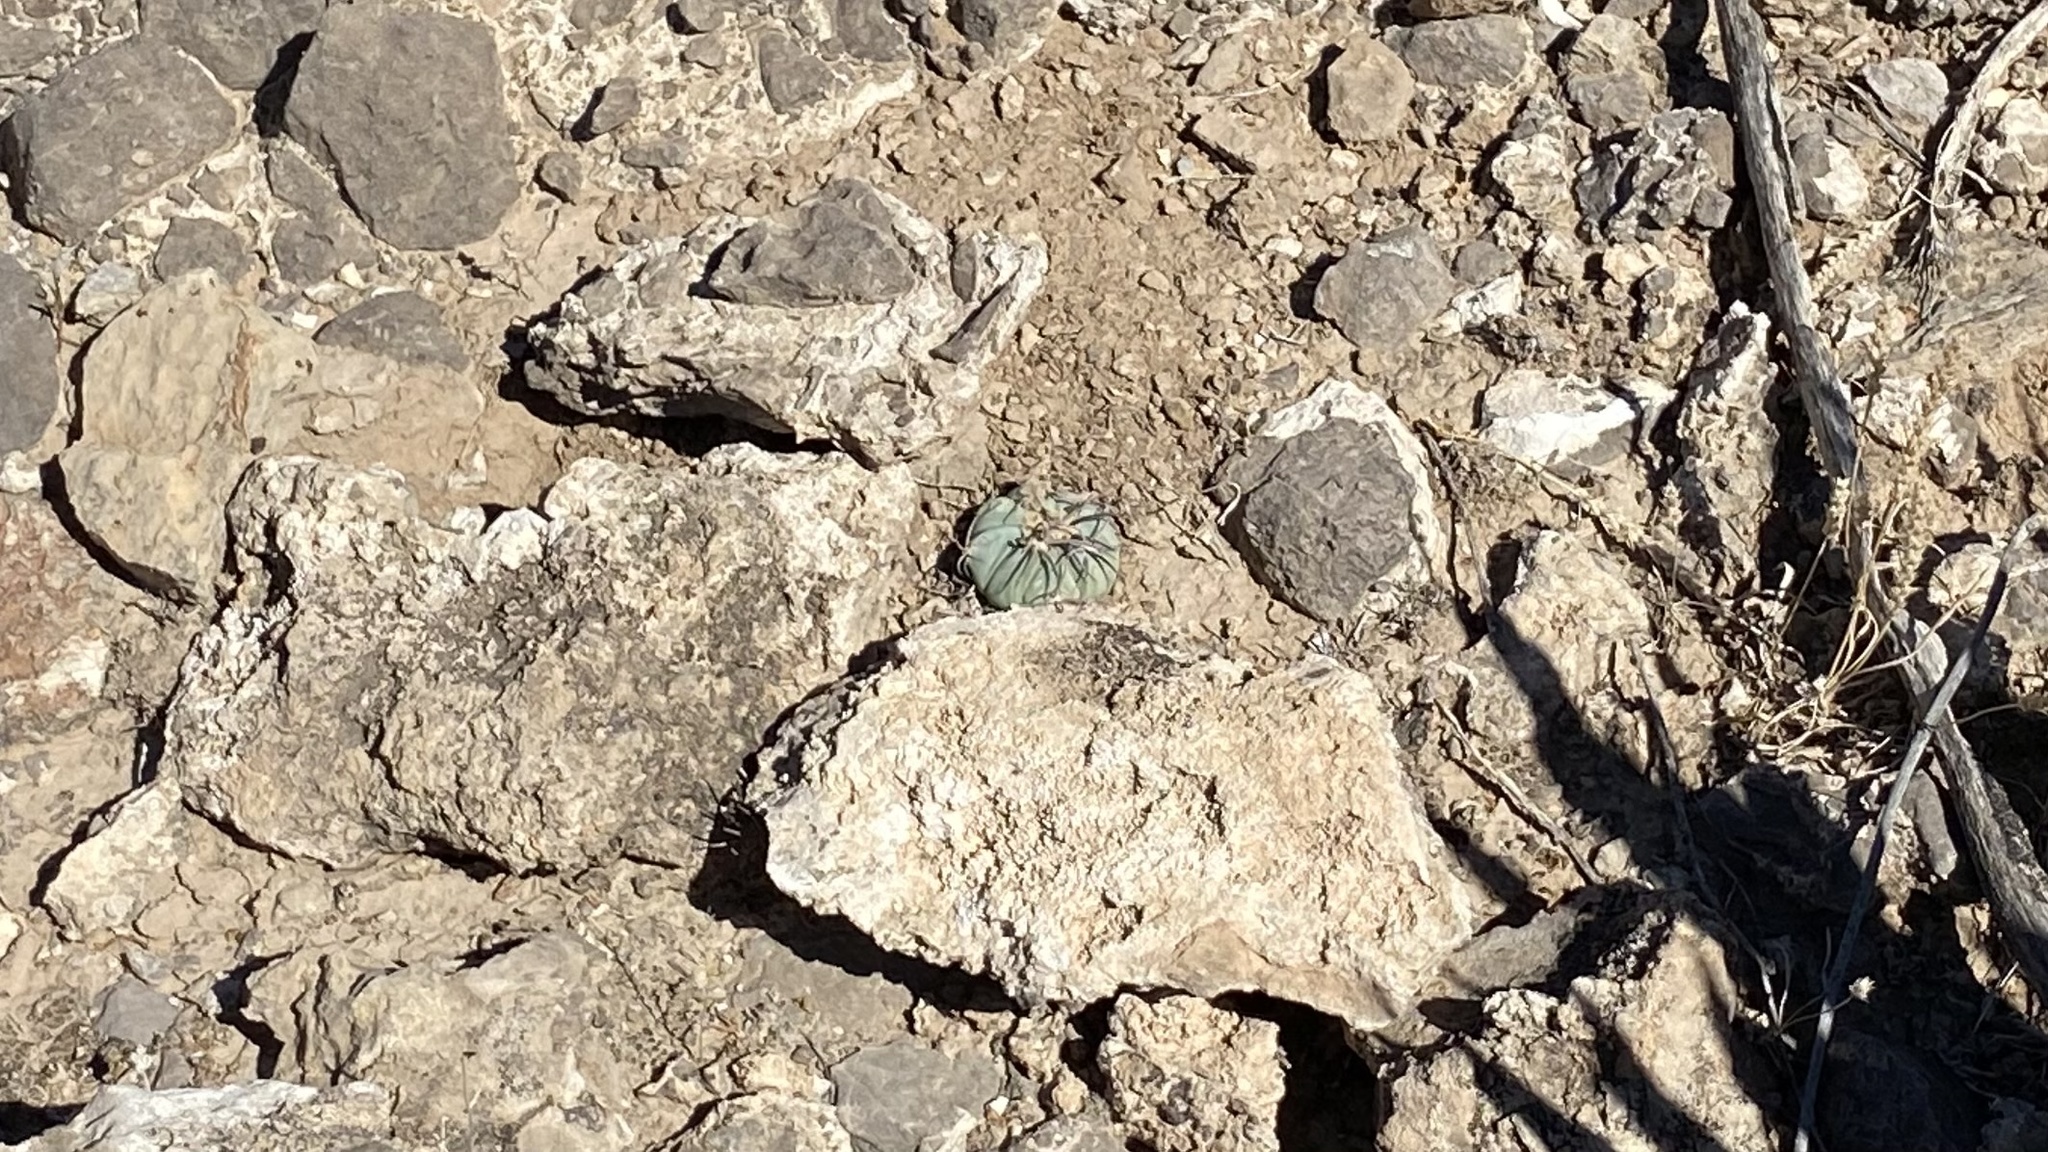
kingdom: Plantae
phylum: Tracheophyta
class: Magnoliopsida
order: Caryophyllales
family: Cactaceae
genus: Echinocactus
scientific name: Echinocactus horizonthalonius
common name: Devilshead
